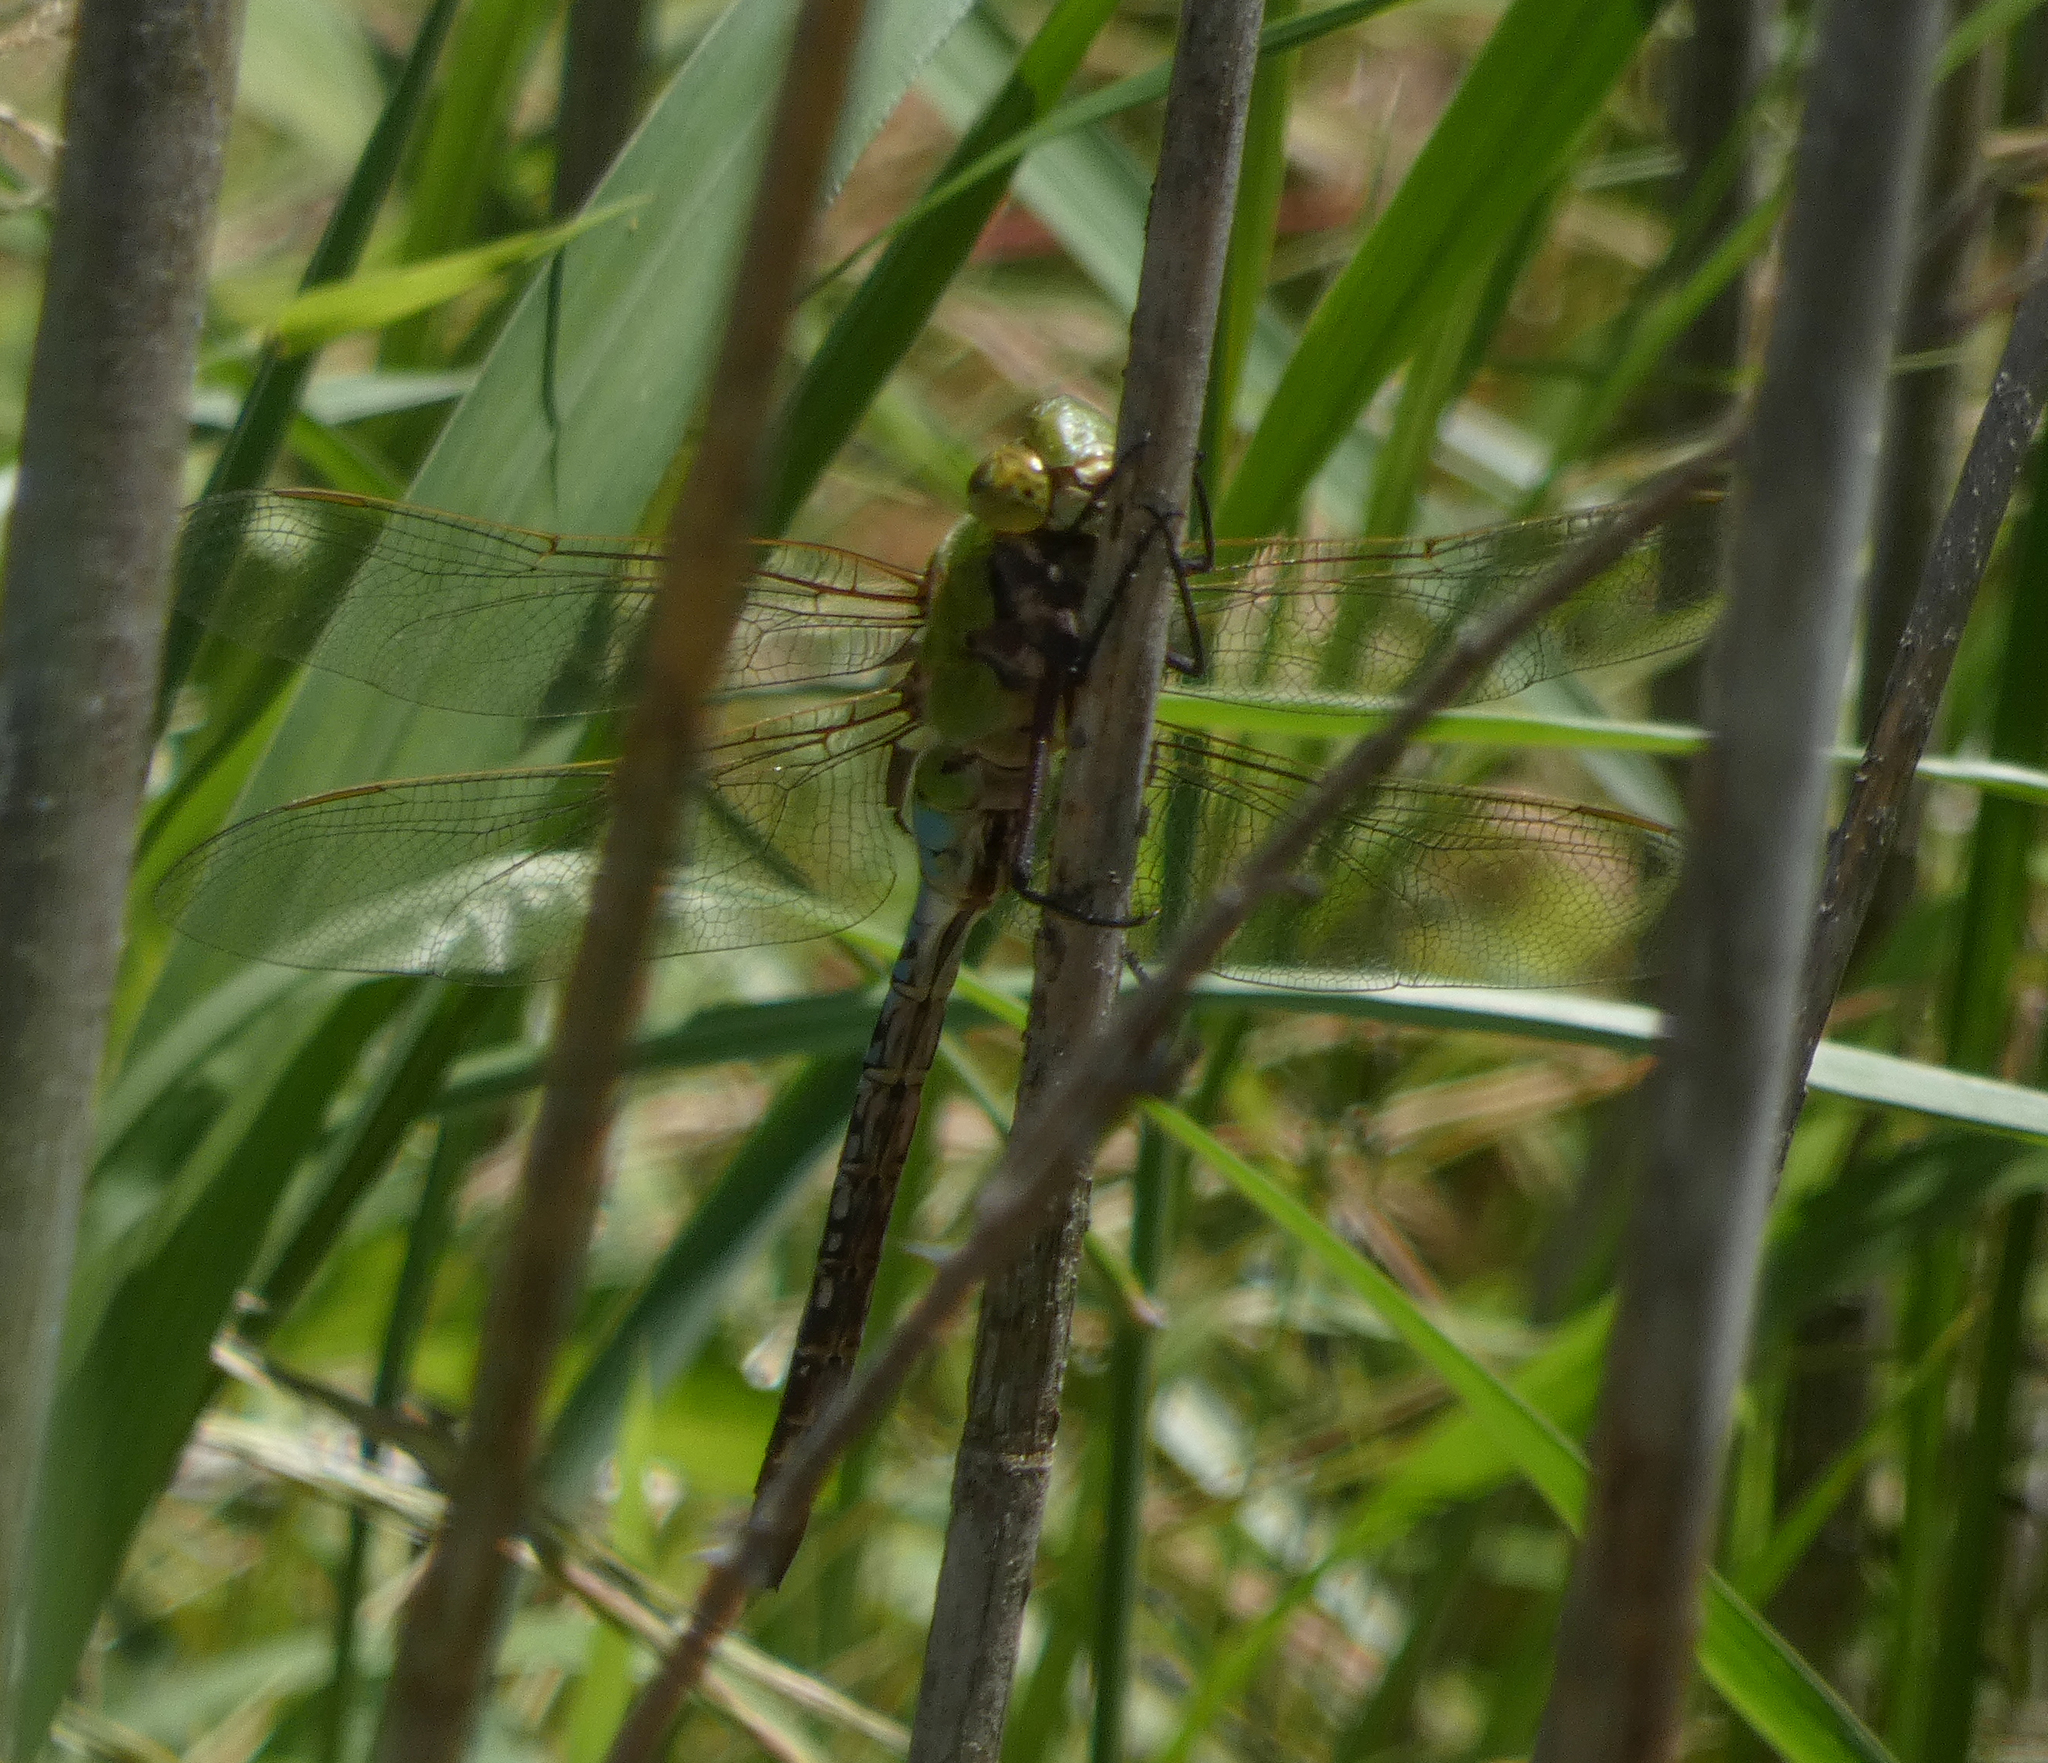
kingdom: Animalia
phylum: Arthropoda
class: Insecta
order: Odonata
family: Aeshnidae
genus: Anax
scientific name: Anax junius
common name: Common green darner
